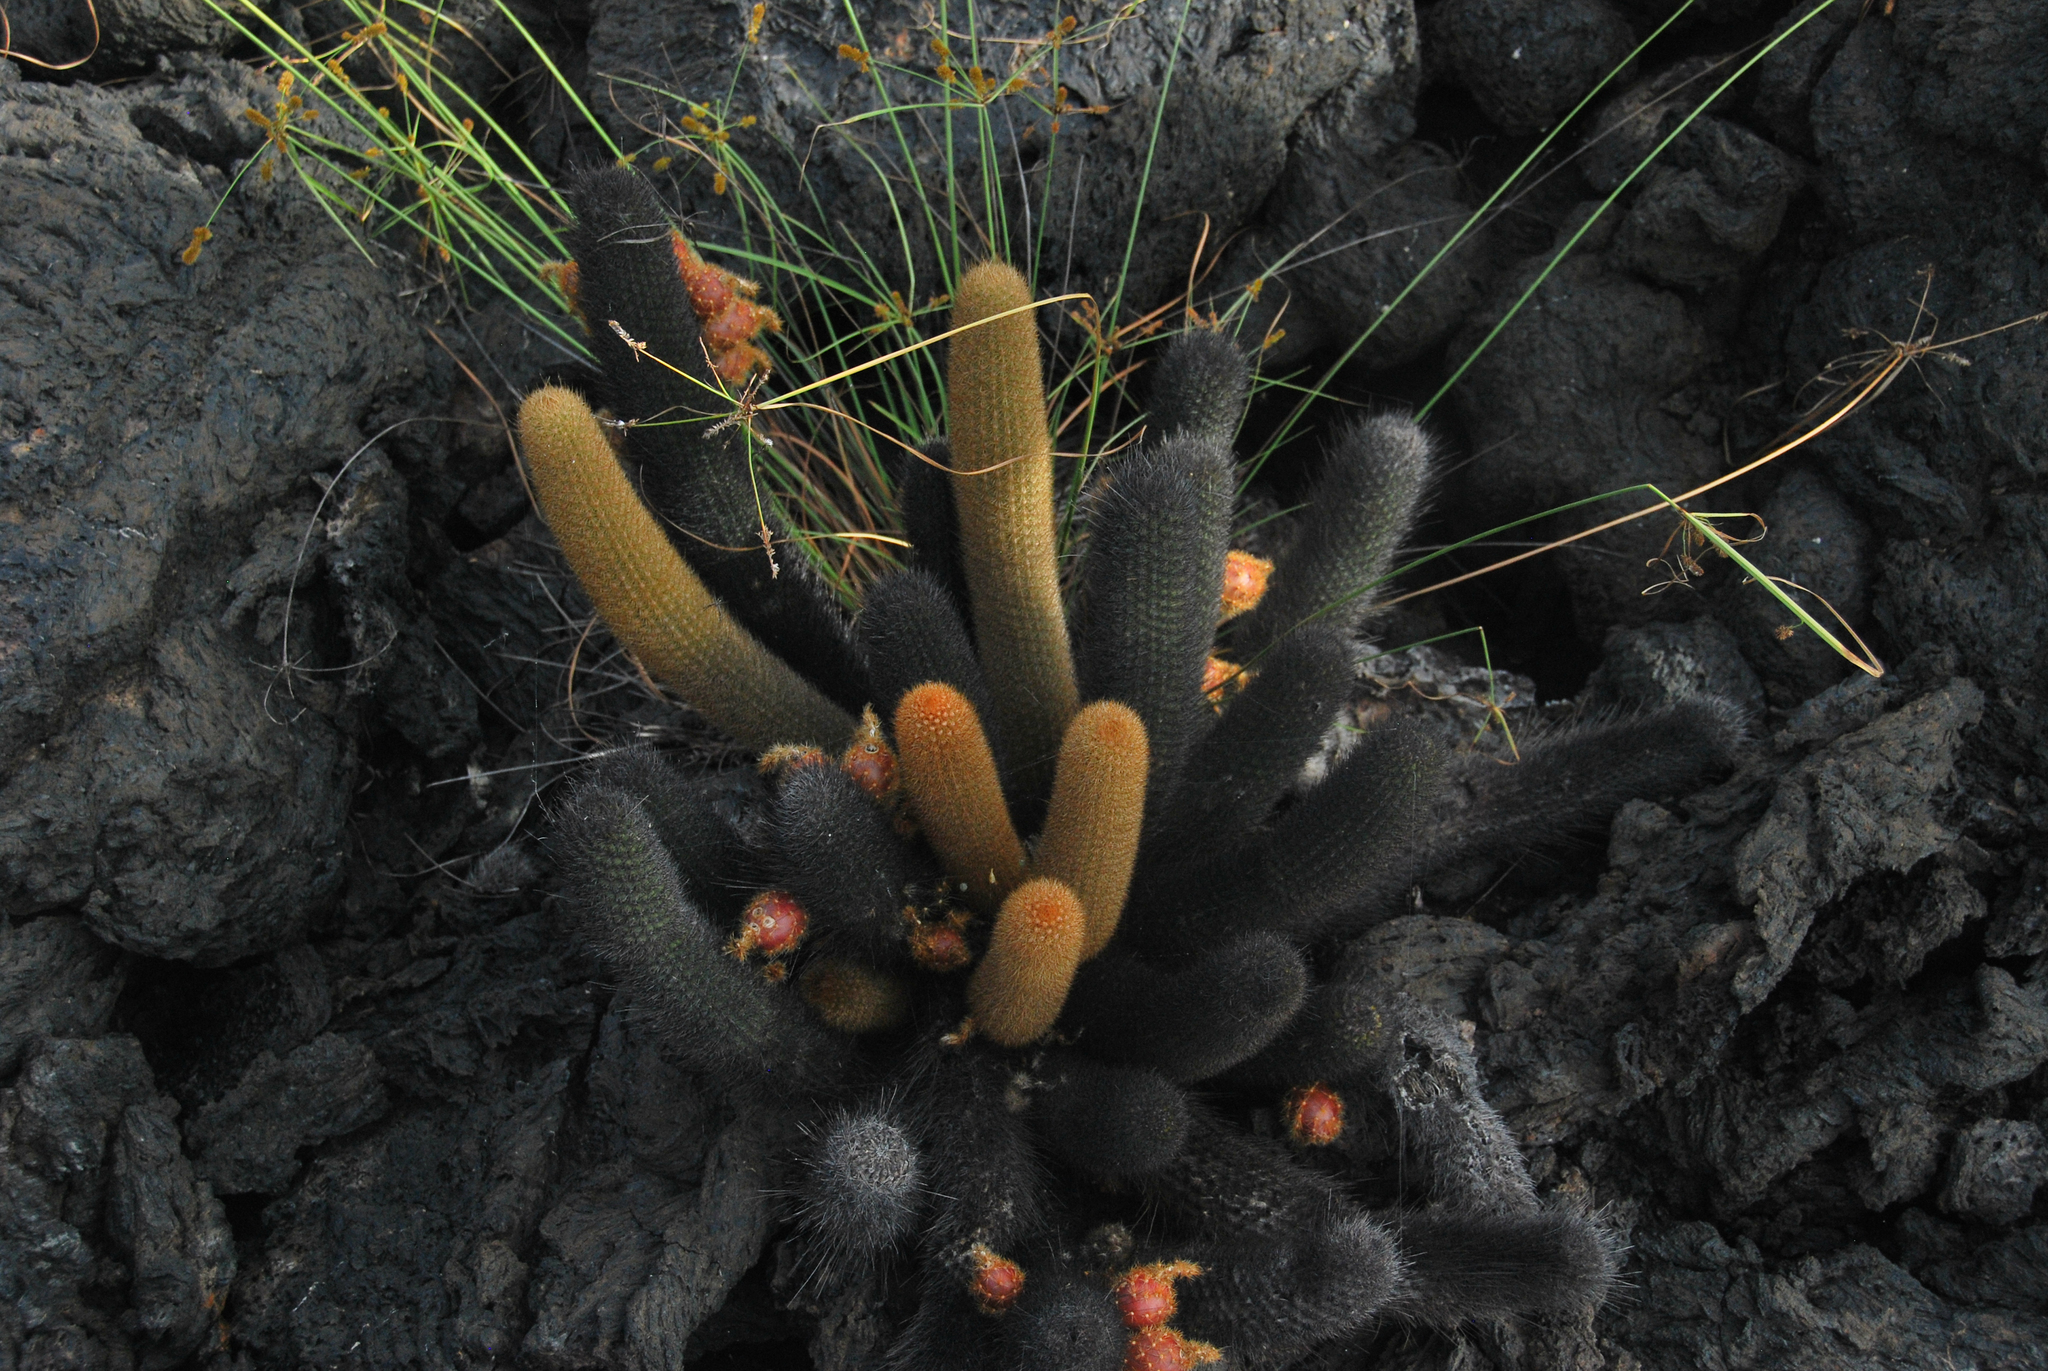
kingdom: Plantae
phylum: Tracheophyta
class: Magnoliopsida
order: Caryophyllales
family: Cactaceae
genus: Brachycereus
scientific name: Brachycereus nesioticus
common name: Lava cactus
